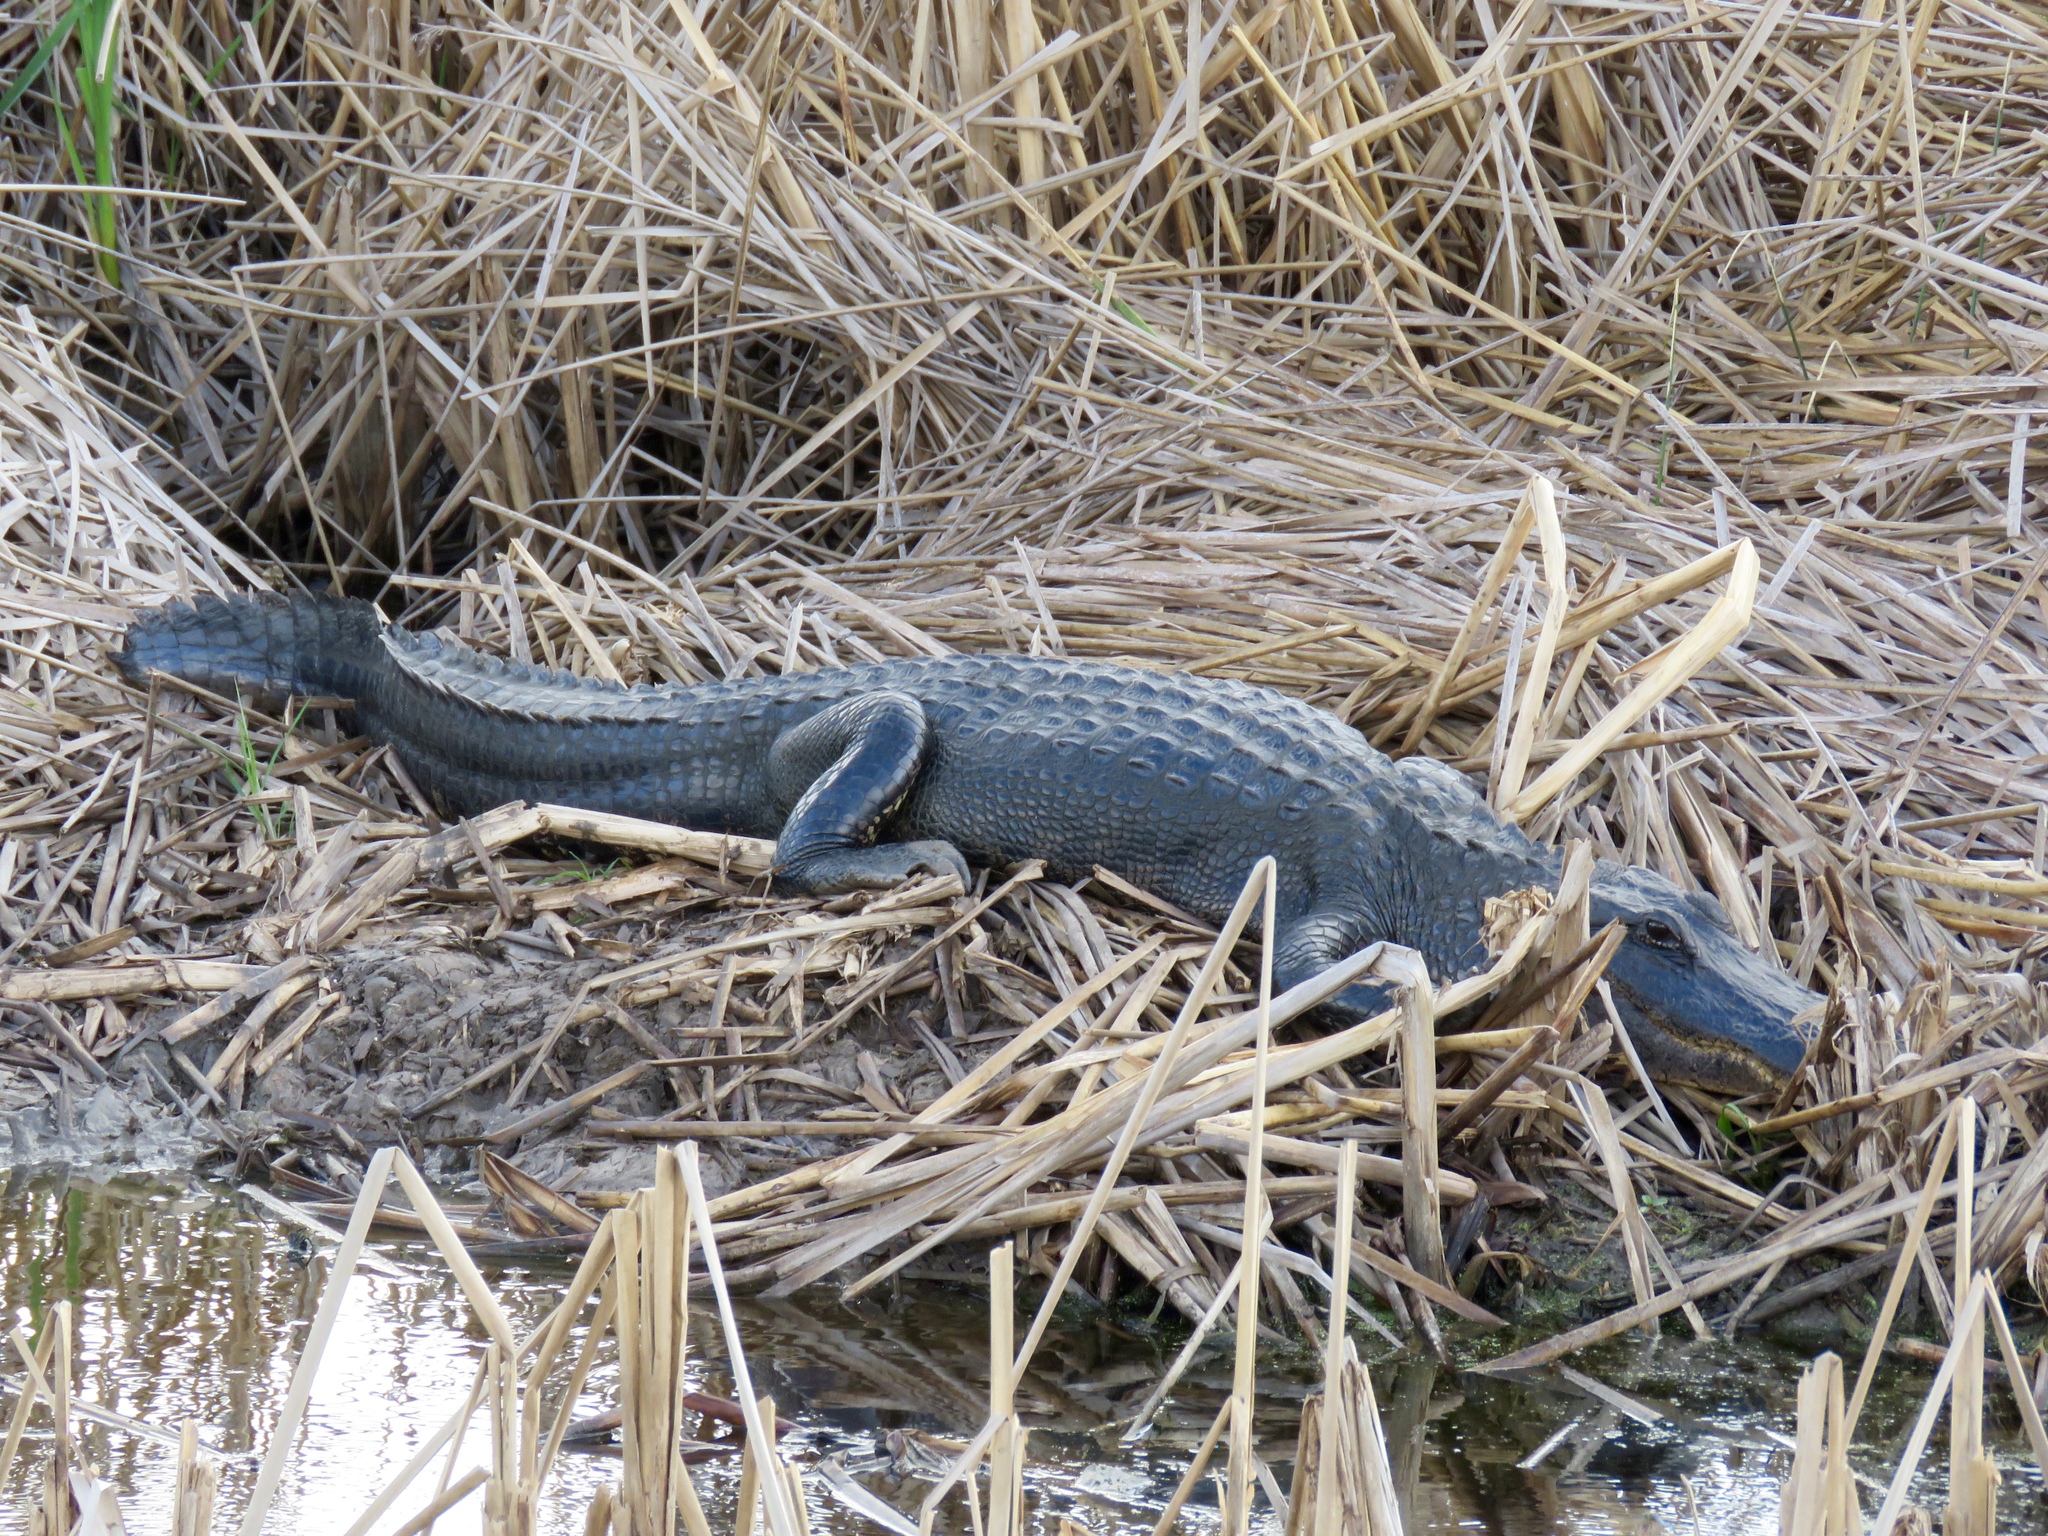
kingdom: Animalia
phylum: Chordata
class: Crocodylia
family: Alligatoridae
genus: Alligator
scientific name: Alligator mississippiensis
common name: American alligator
